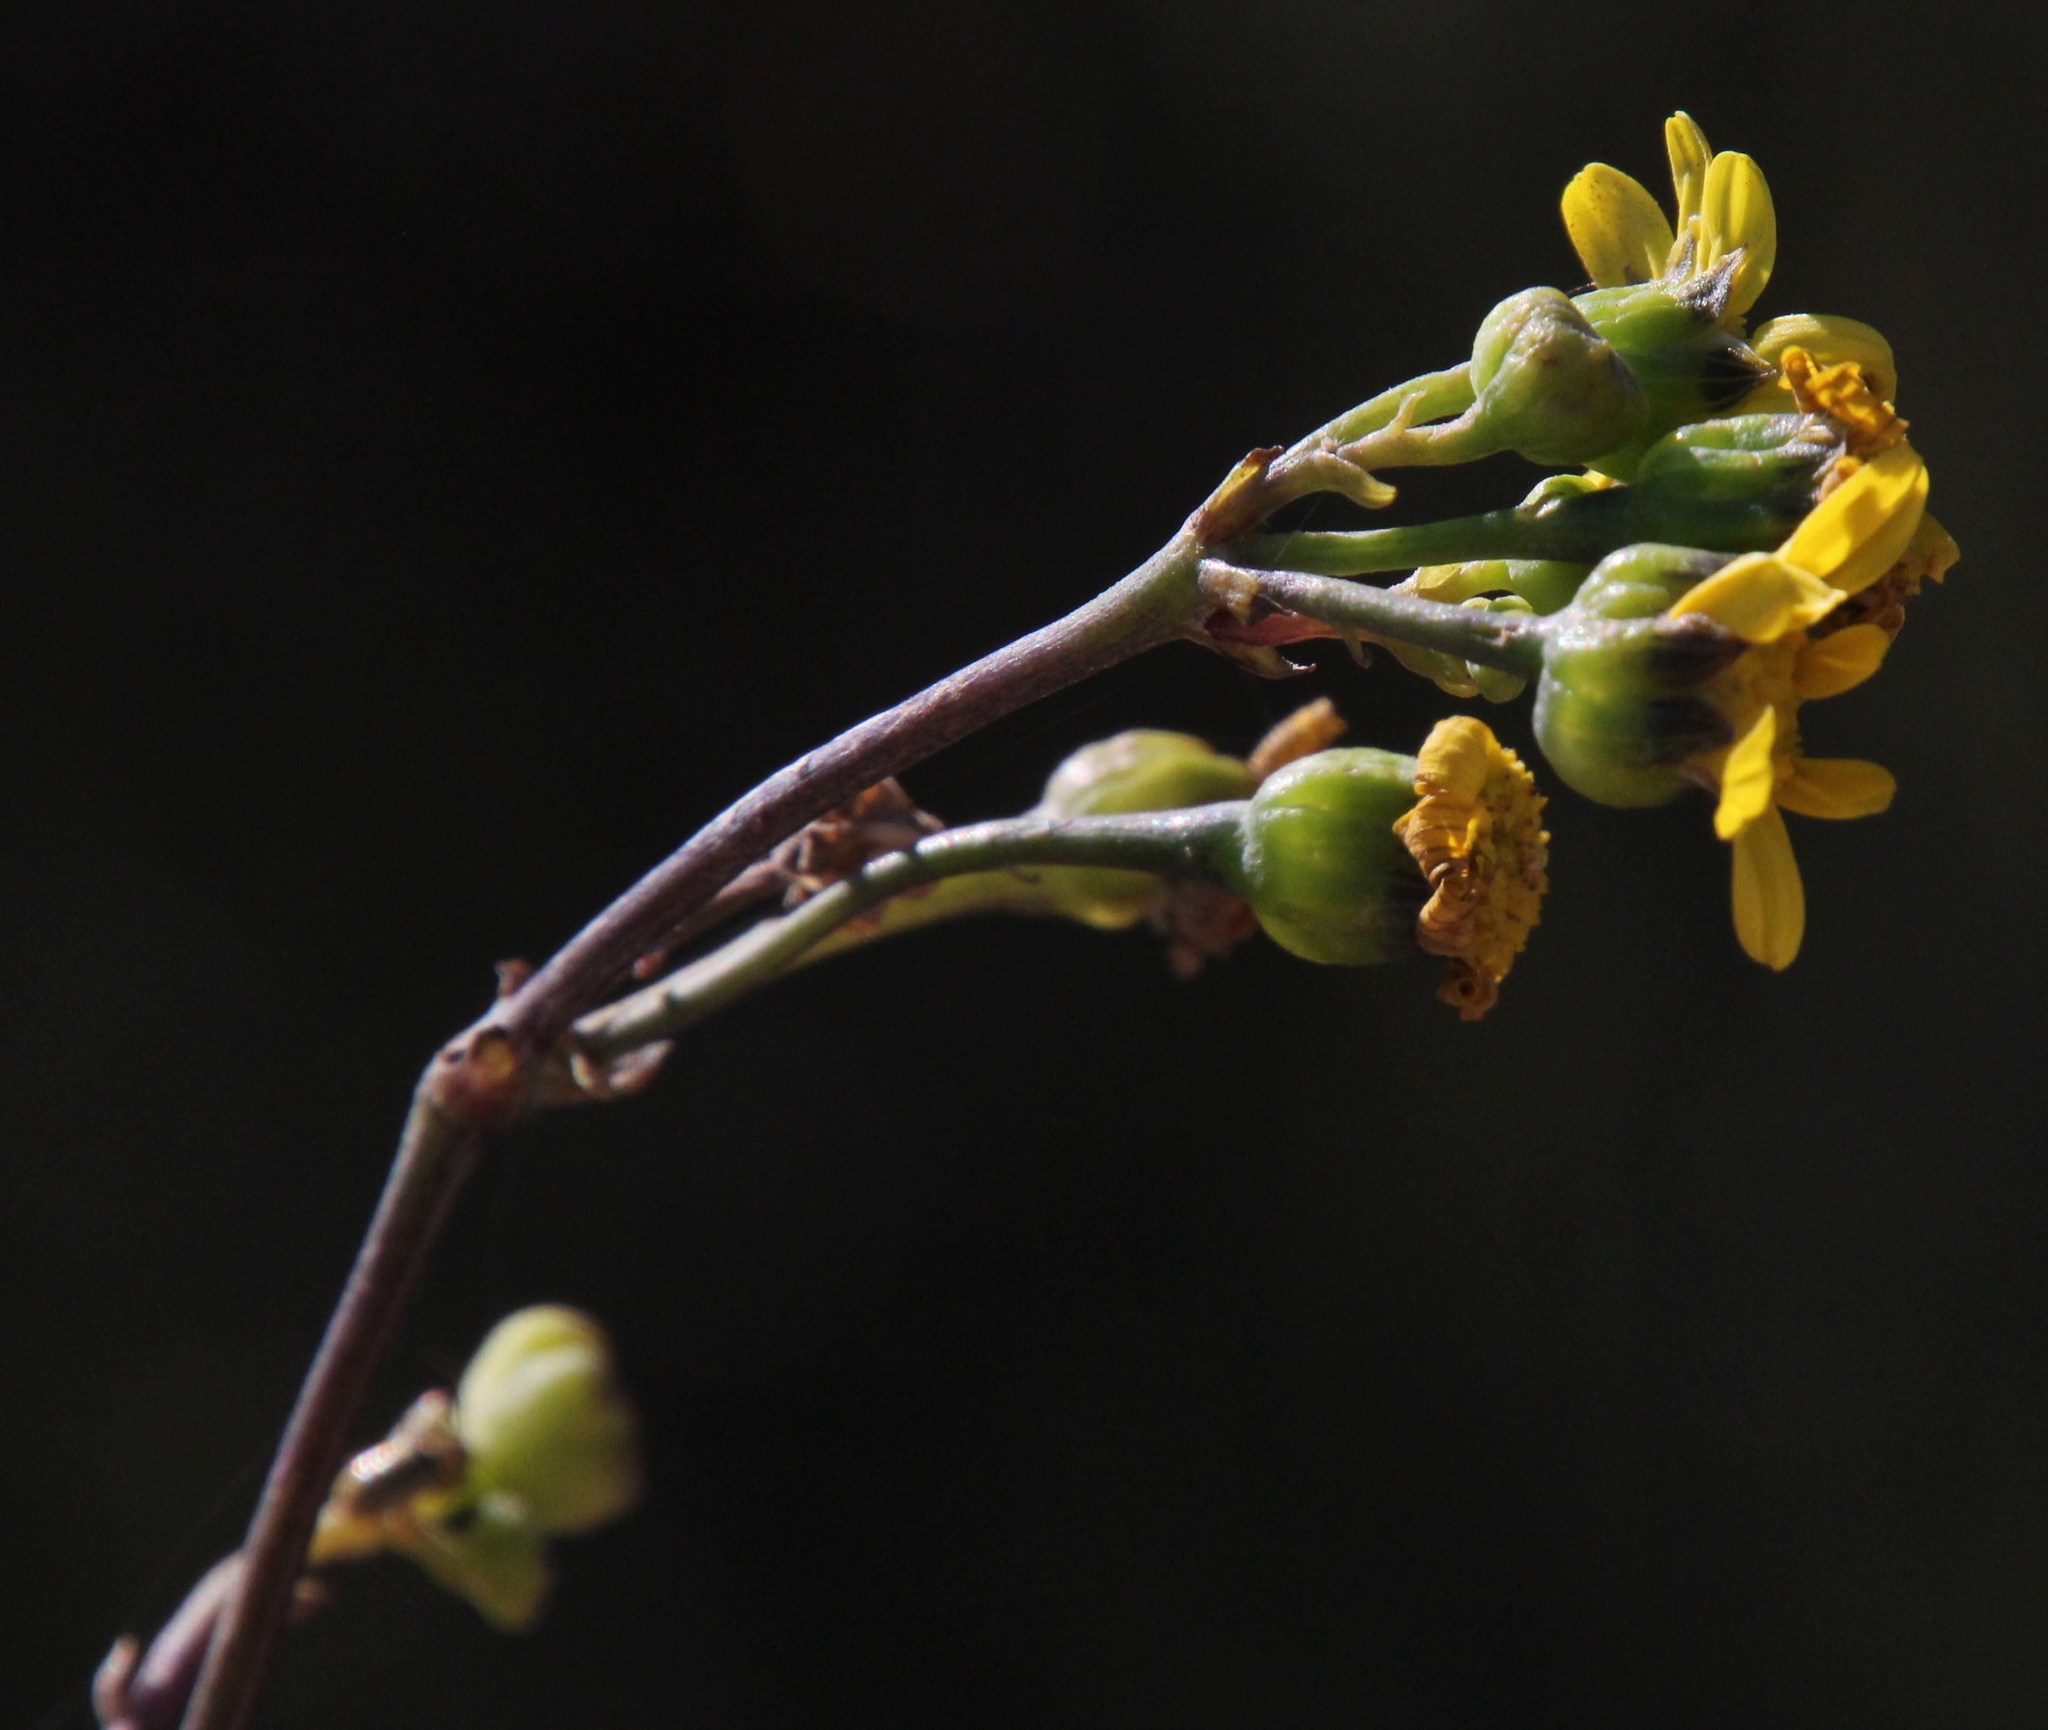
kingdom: Plantae
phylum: Tracheophyta
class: Magnoliopsida
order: Asterales
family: Asteraceae
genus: Othonna
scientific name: Othonna quinquedentata
